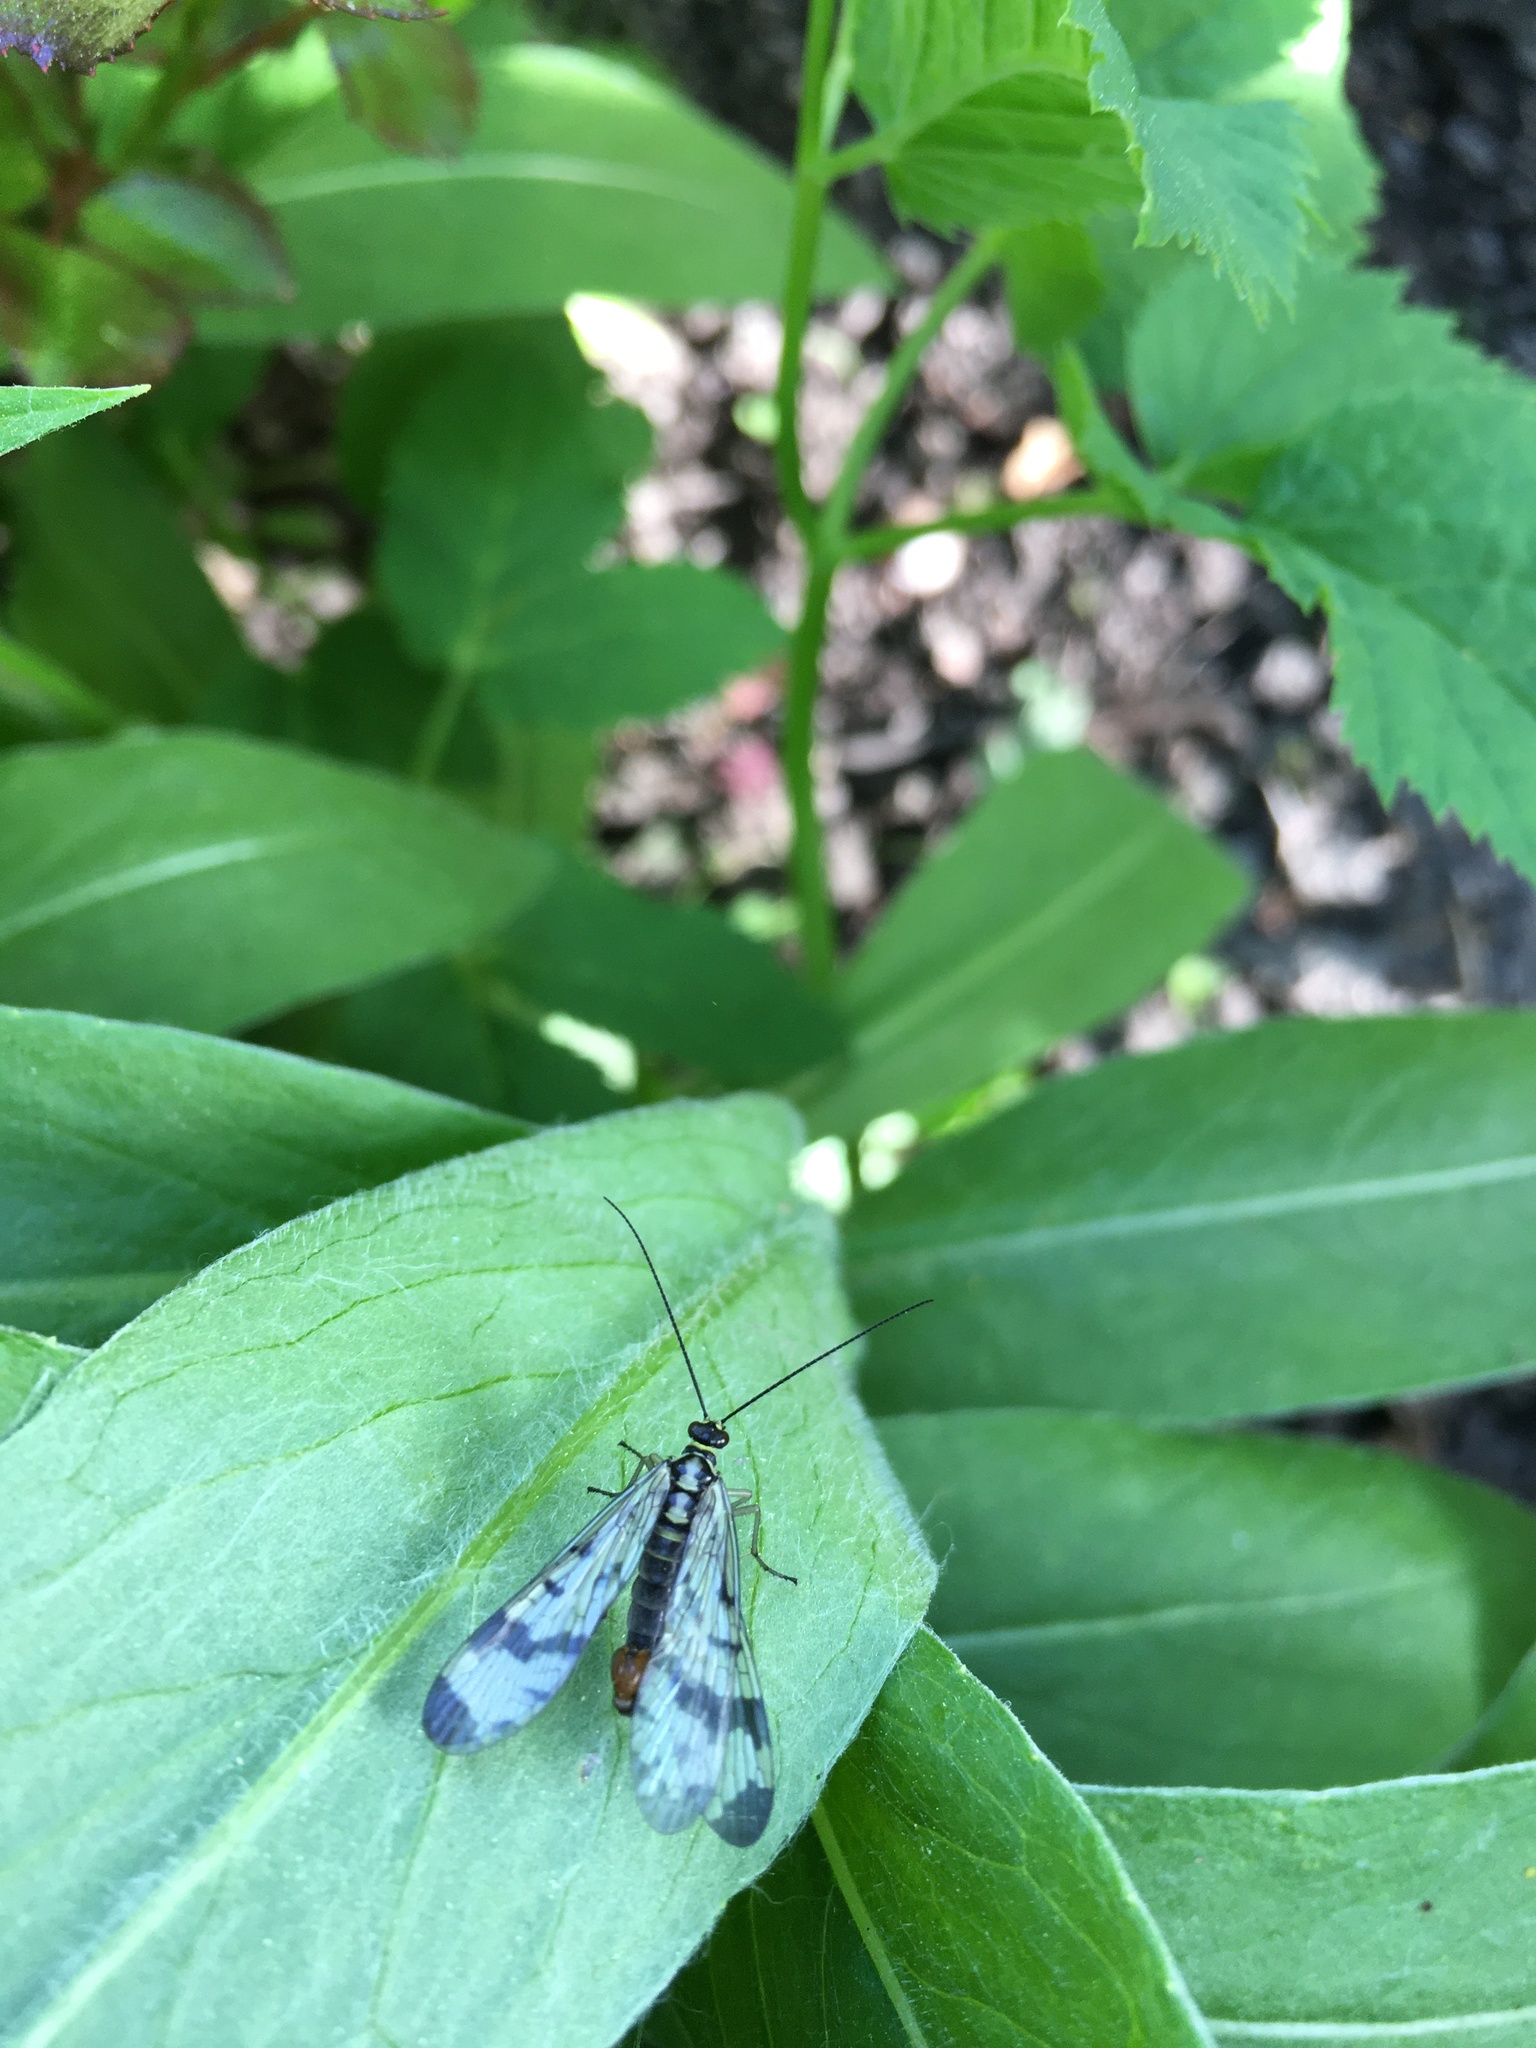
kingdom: Animalia
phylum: Arthropoda
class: Insecta
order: Mecoptera
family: Panorpidae
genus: Panorpa
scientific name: Panorpa communis
